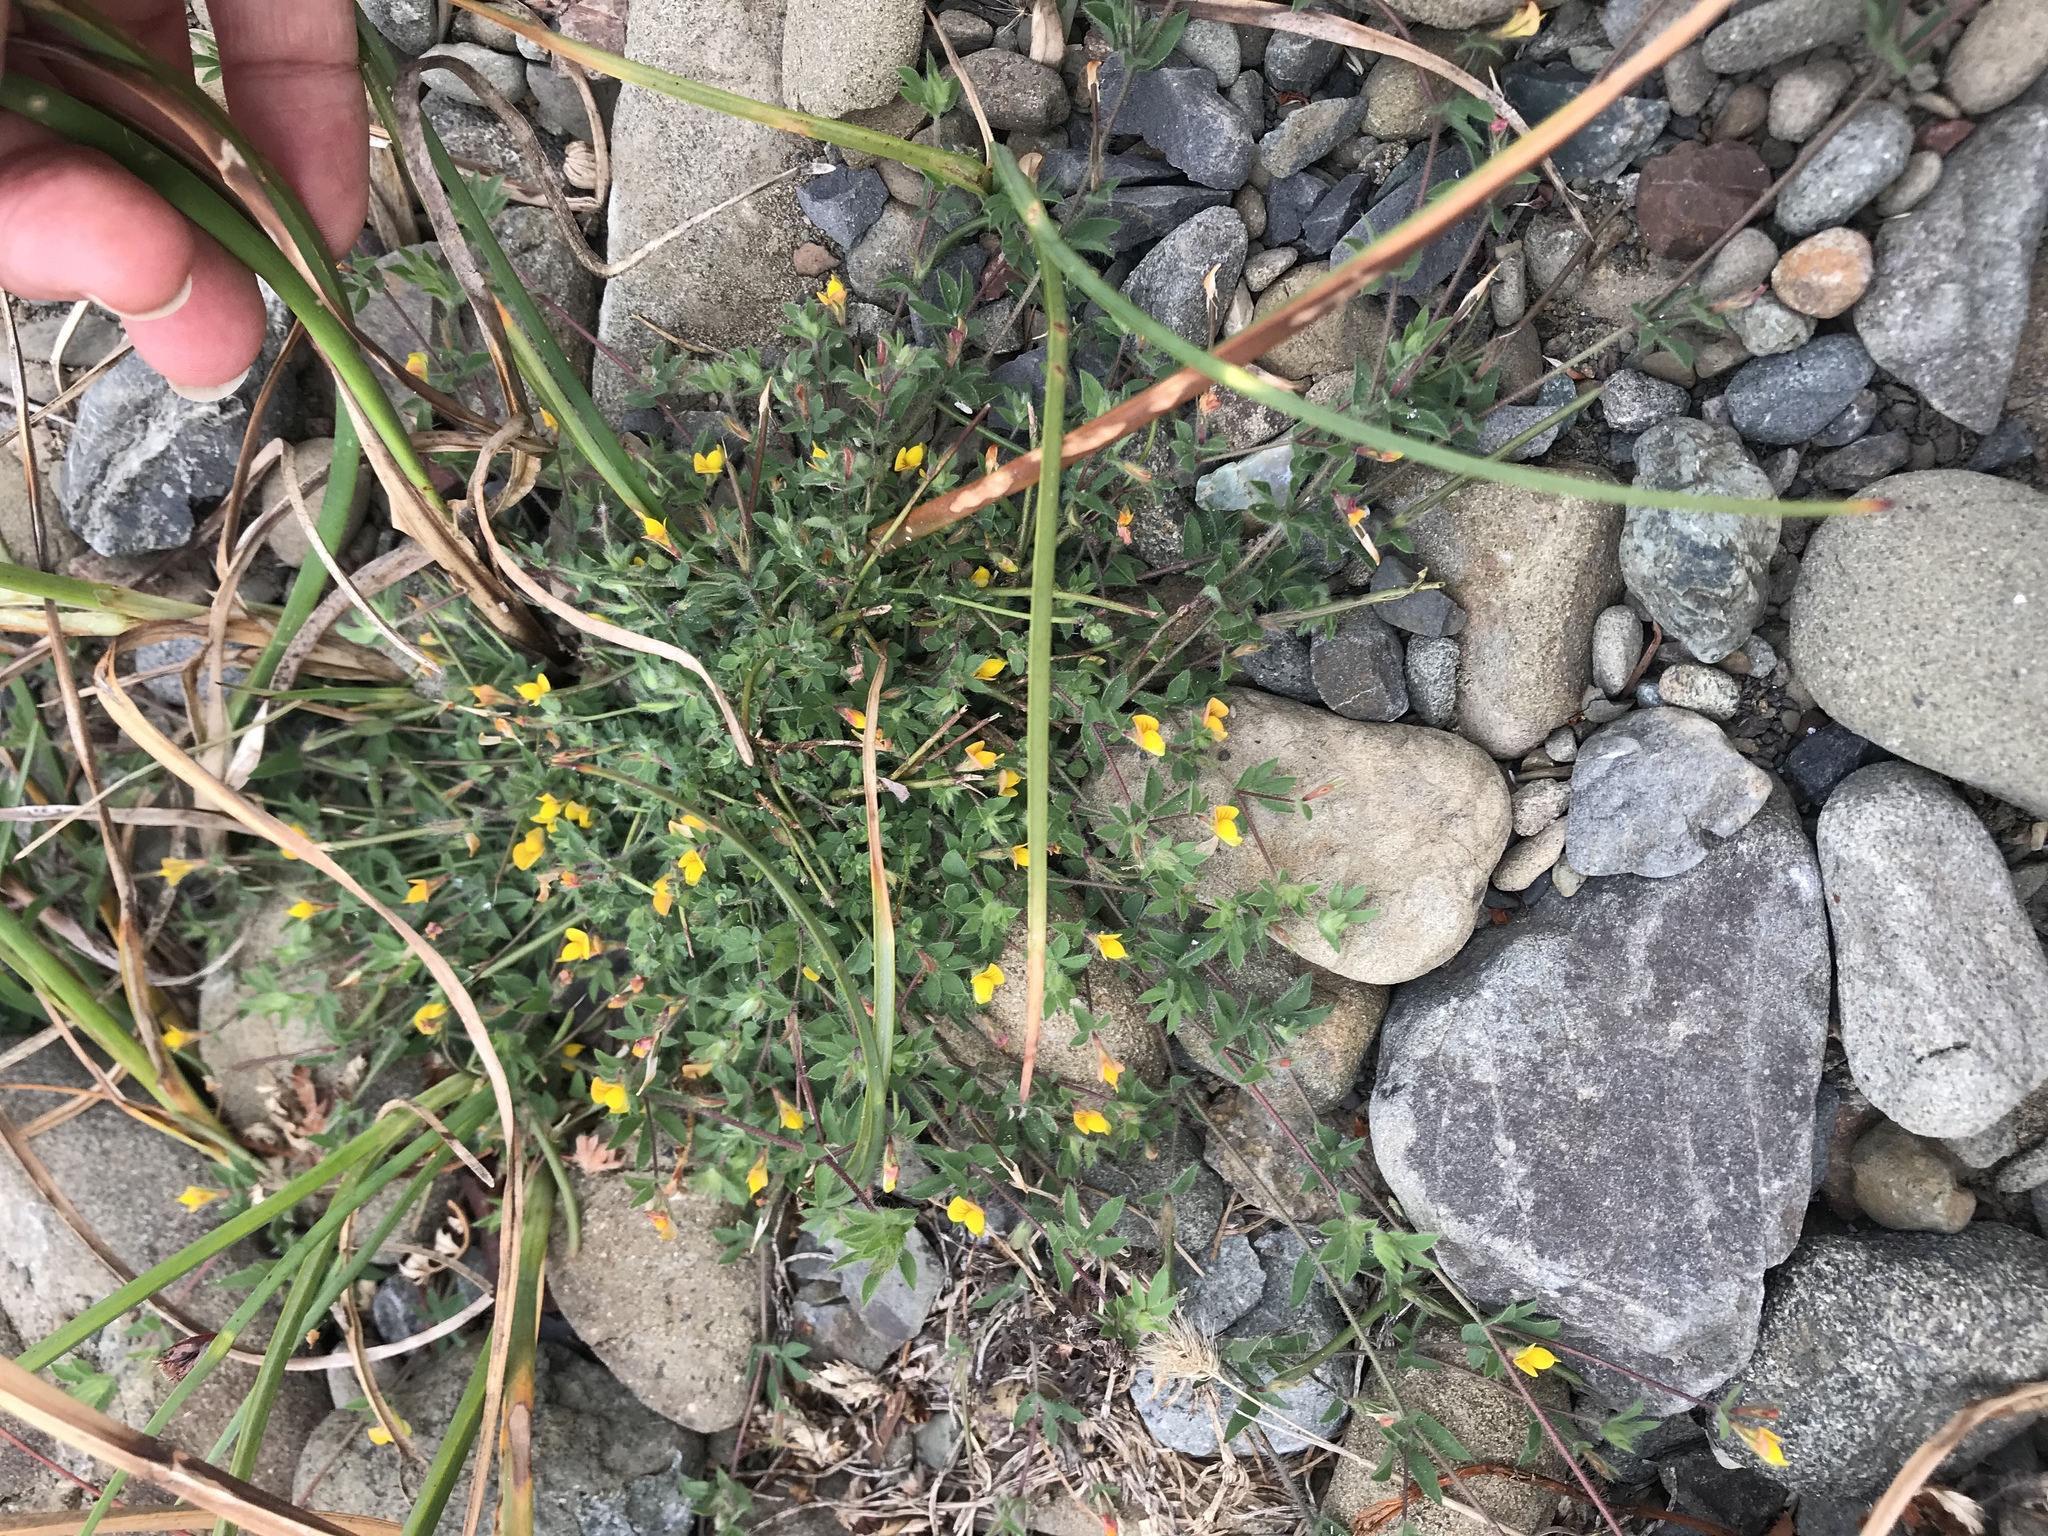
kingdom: Plantae
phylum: Tracheophyta
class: Magnoliopsida
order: Fabales
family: Fabaceae
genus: Lotus
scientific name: Lotus angustissimus
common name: Slender bird's-foot trefoil
